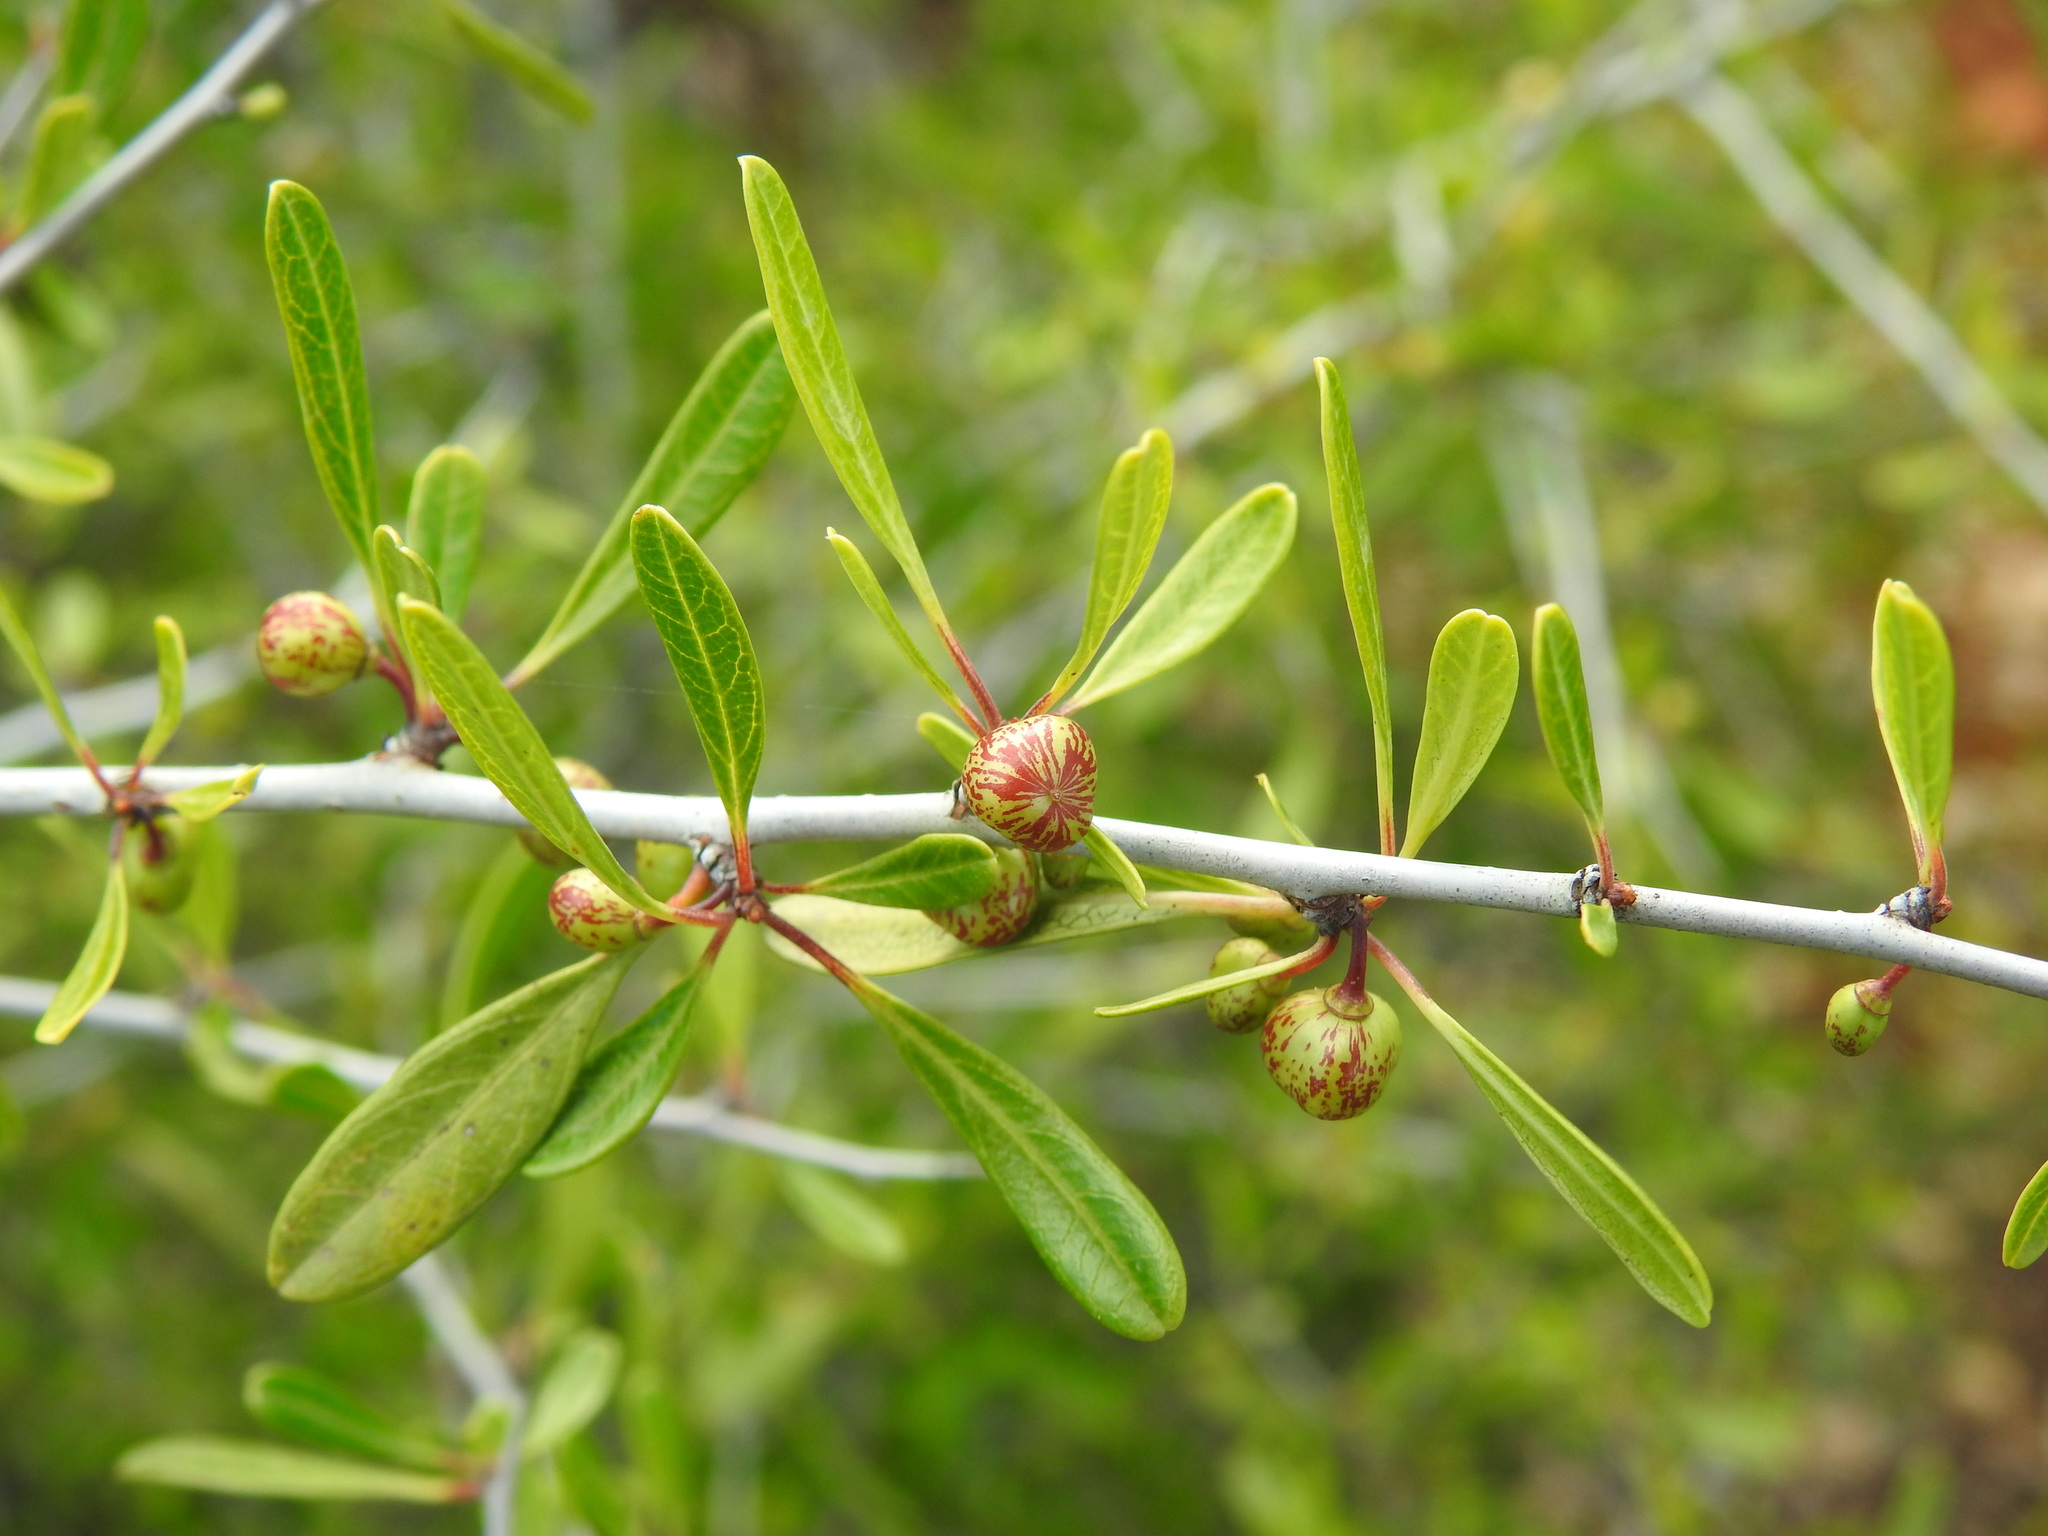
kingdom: Plantae
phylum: Tracheophyta
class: Magnoliopsida
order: Rosales
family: Rhamnaceae
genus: Rhamnus
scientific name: Rhamnus oleoides
